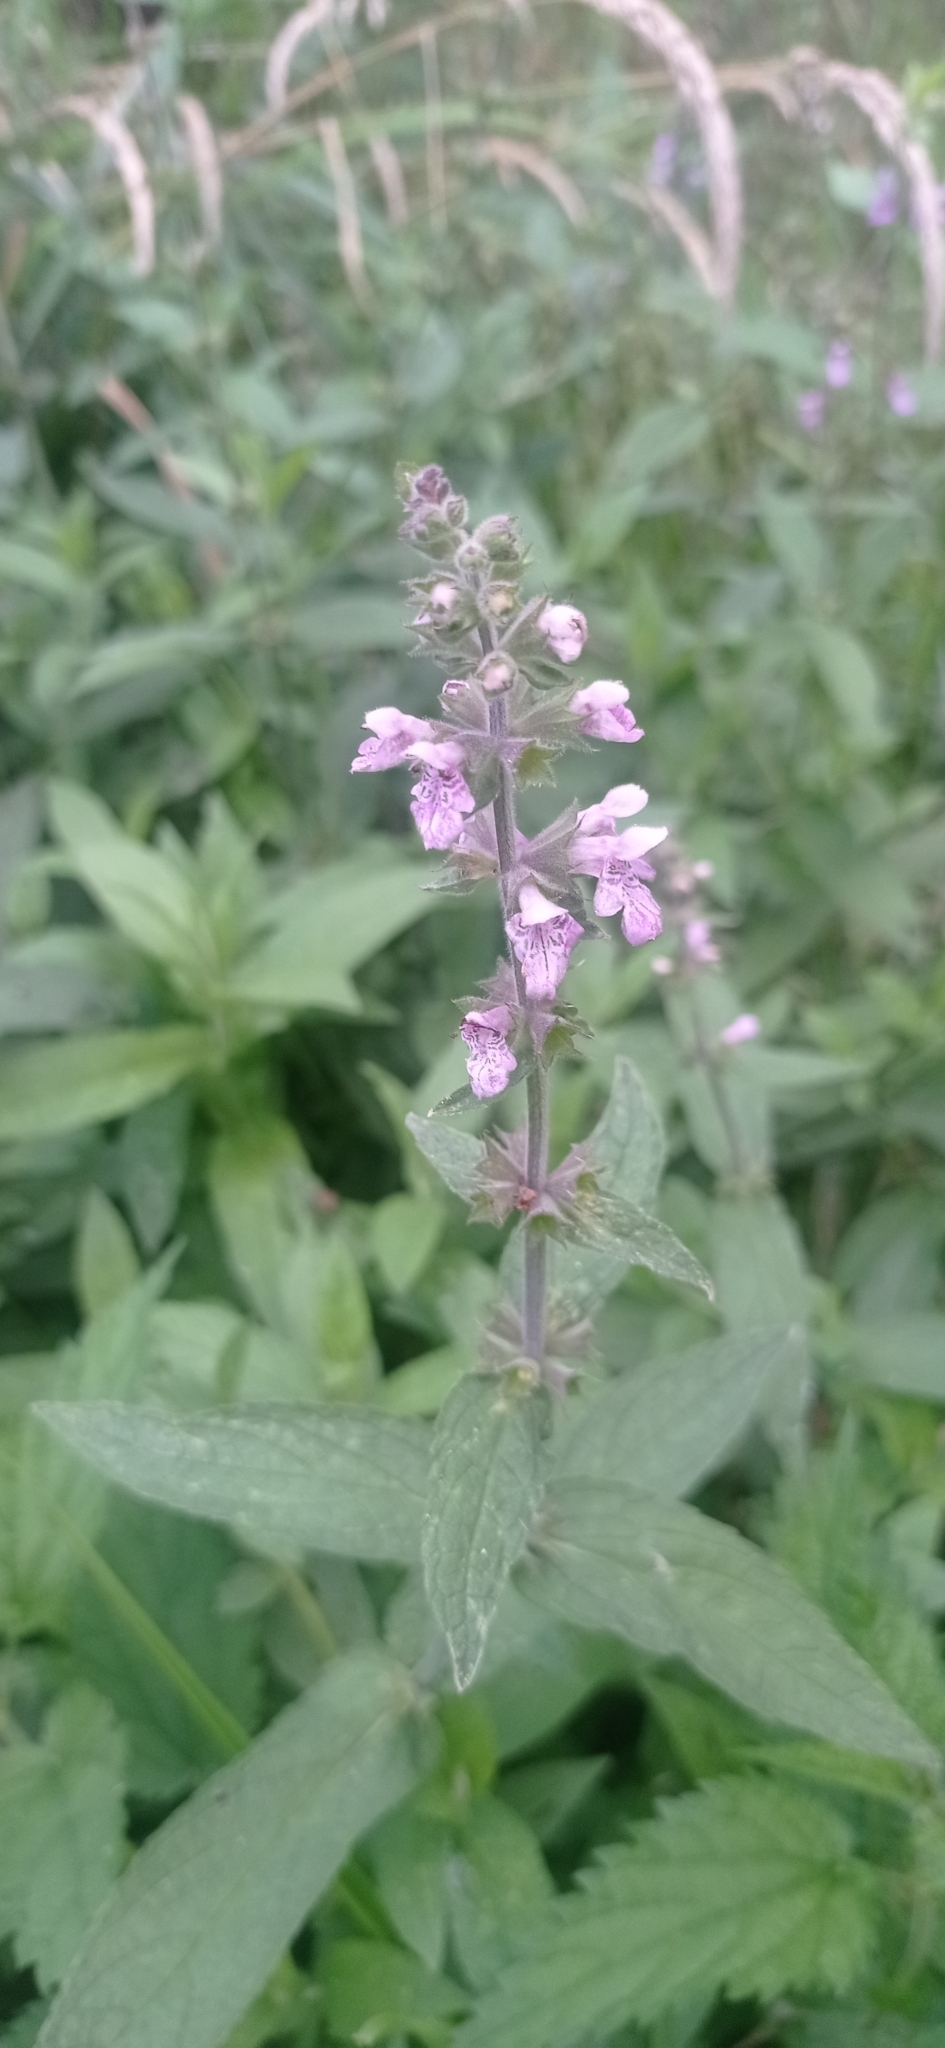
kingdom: Plantae
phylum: Tracheophyta
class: Magnoliopsida
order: Lamiales
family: Lamiaceae
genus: Stachys
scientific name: Stachys palustris
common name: Marsh woundwort
